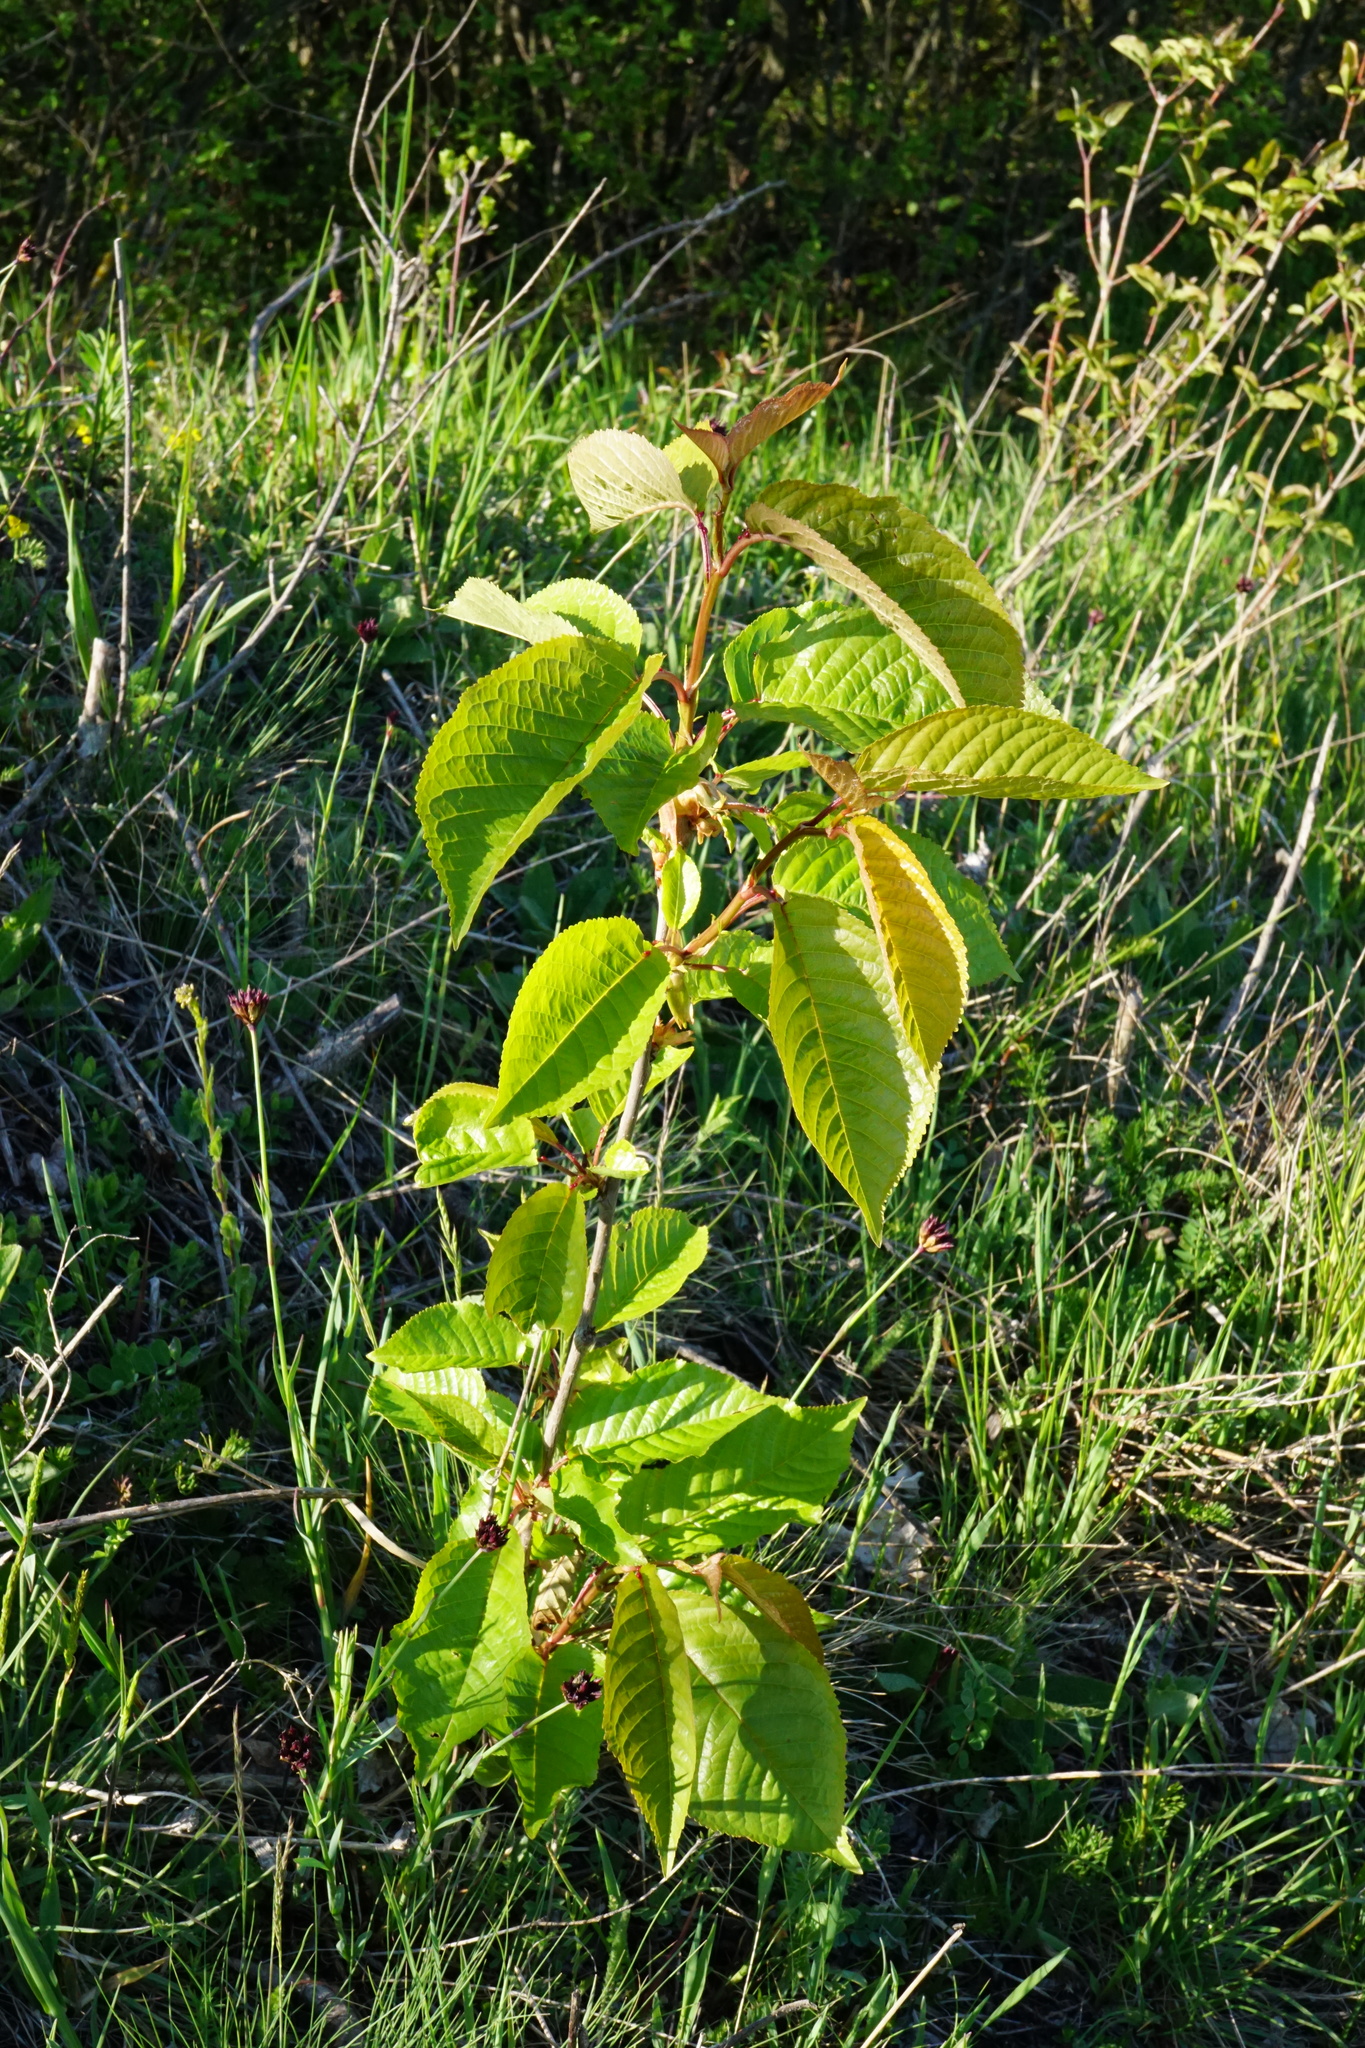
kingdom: Plantae
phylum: Tracheophyta
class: Magnoliopsida
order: Rosales
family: Rosaceae
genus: Prunus
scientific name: Prunus avium
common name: Sweet cherry
